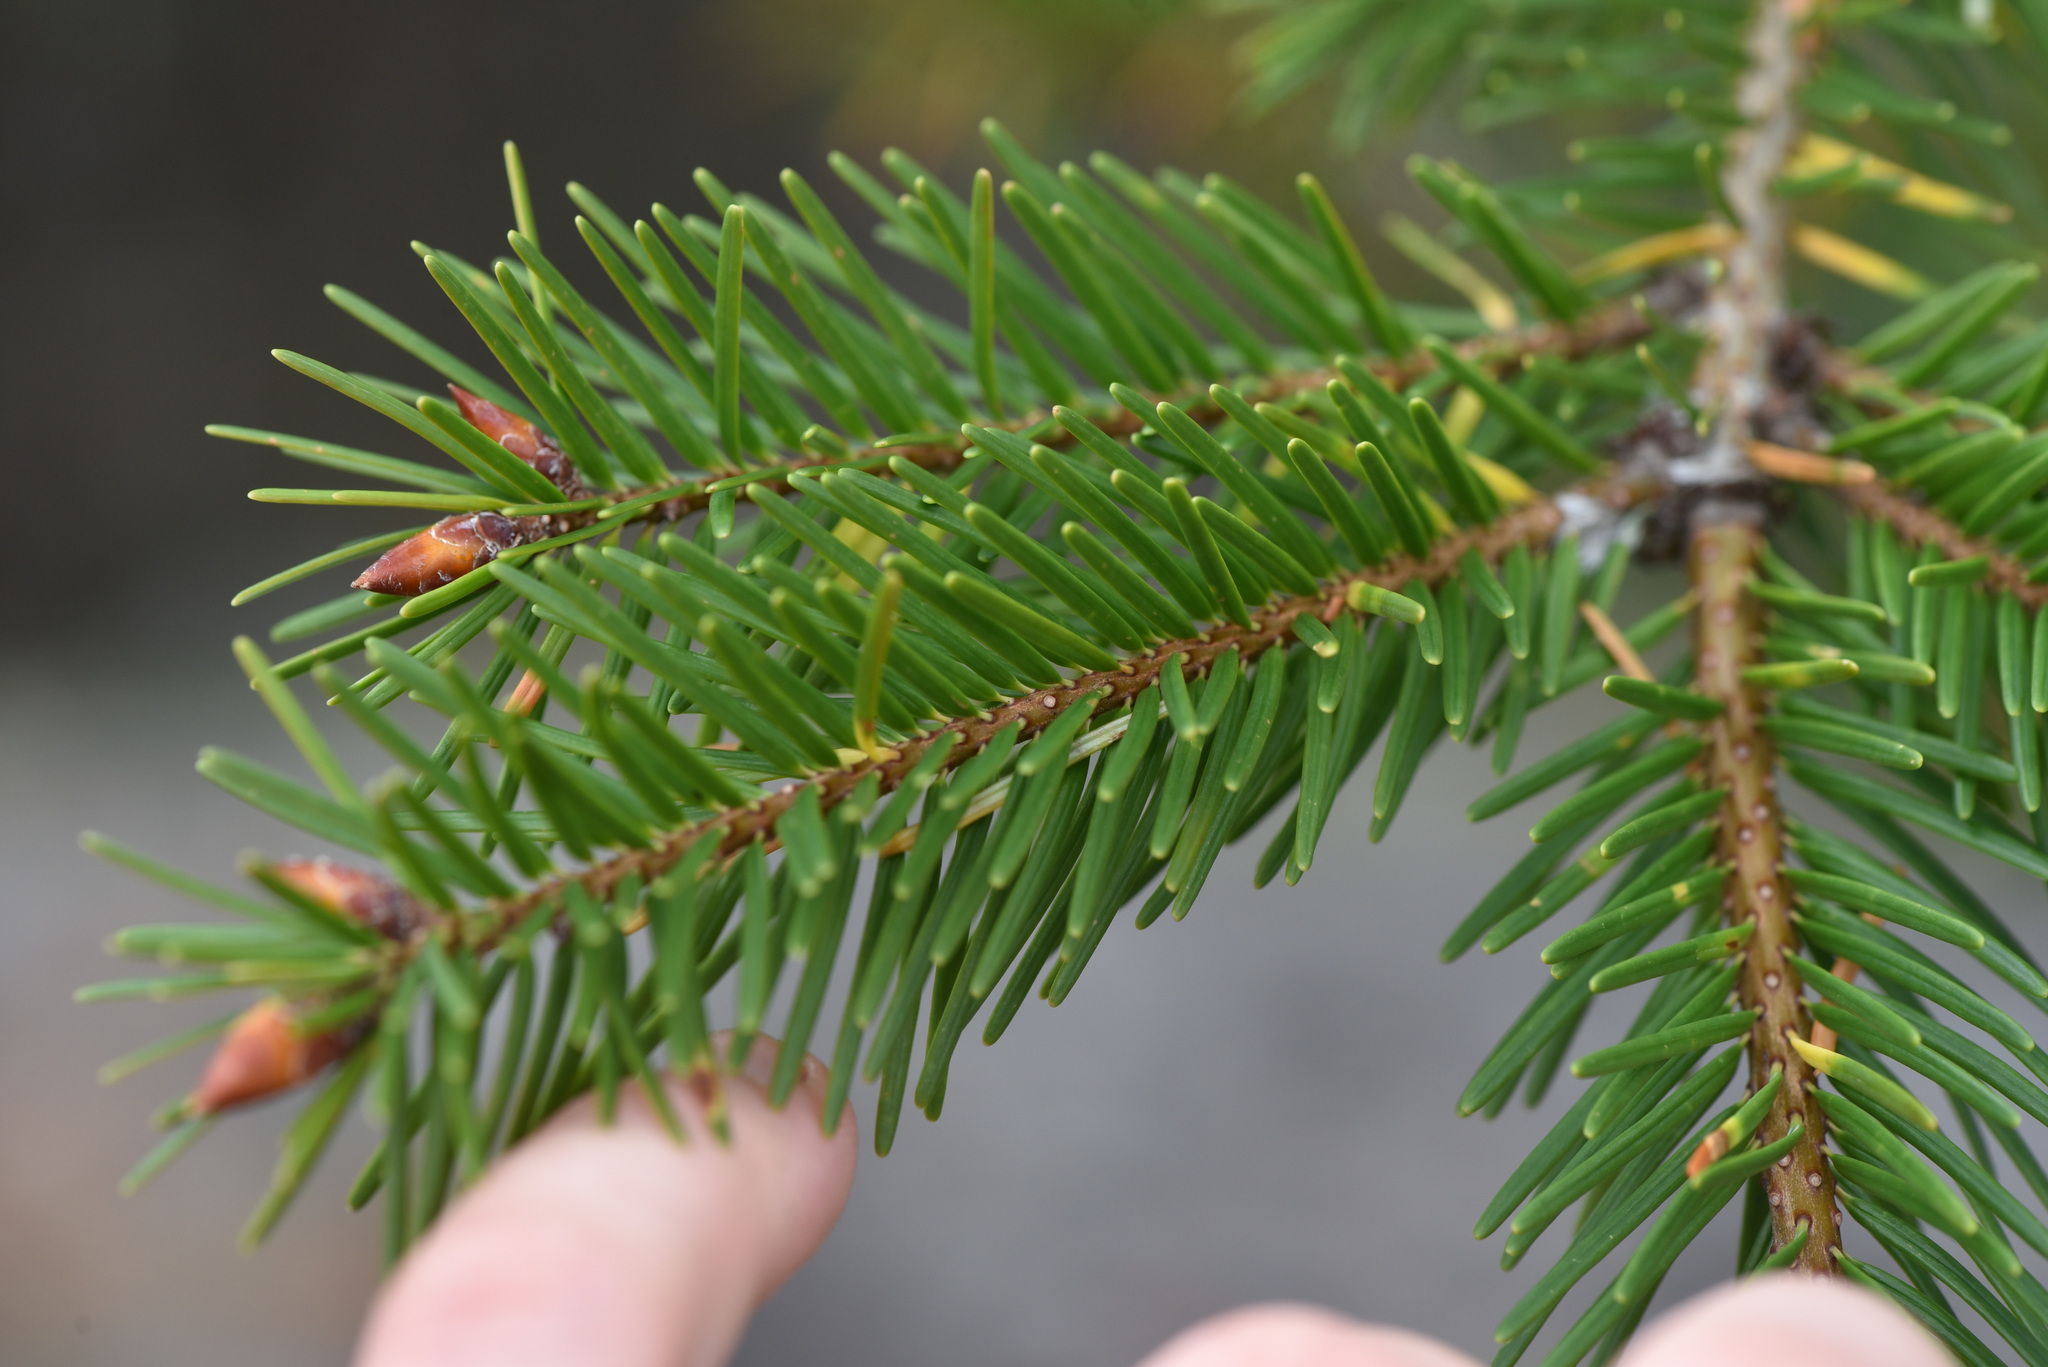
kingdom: Plantae
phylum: Tracheophyta
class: Pinopsida
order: Pinales
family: Pinaceae
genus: Pseudotsuga
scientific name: Pseudotsuga menziesii
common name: Douglas fir
